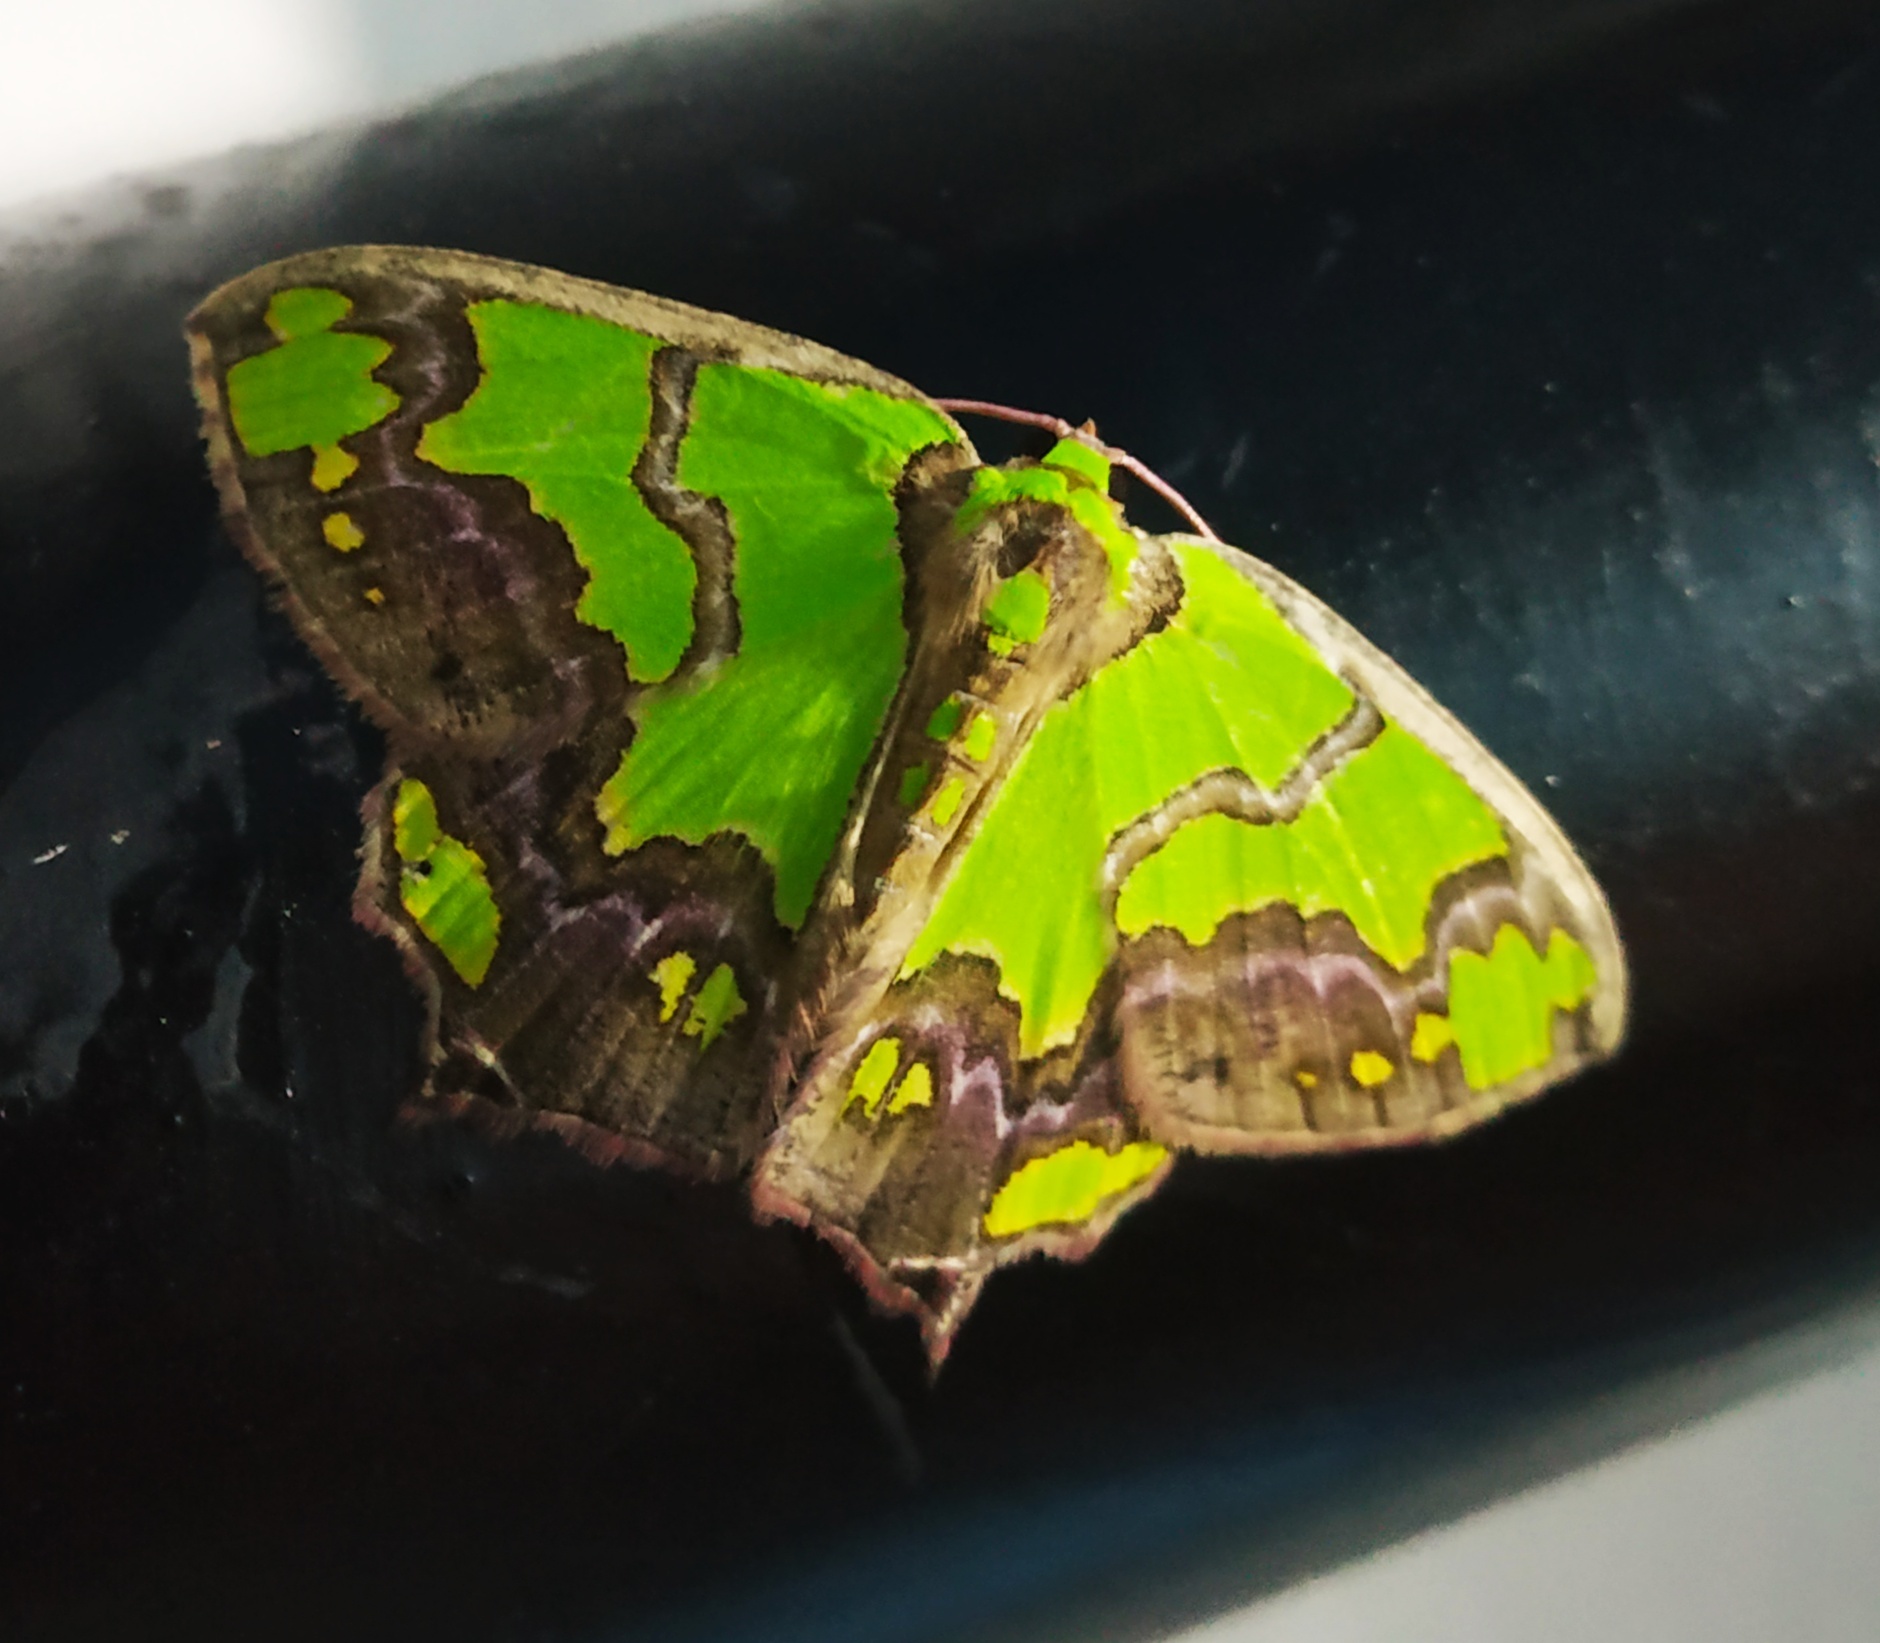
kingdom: Animalia
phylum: Arthropoda
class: Insecta
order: Lepidoptera
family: Geometridae
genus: Agathia
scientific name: Agathia hemithearia
